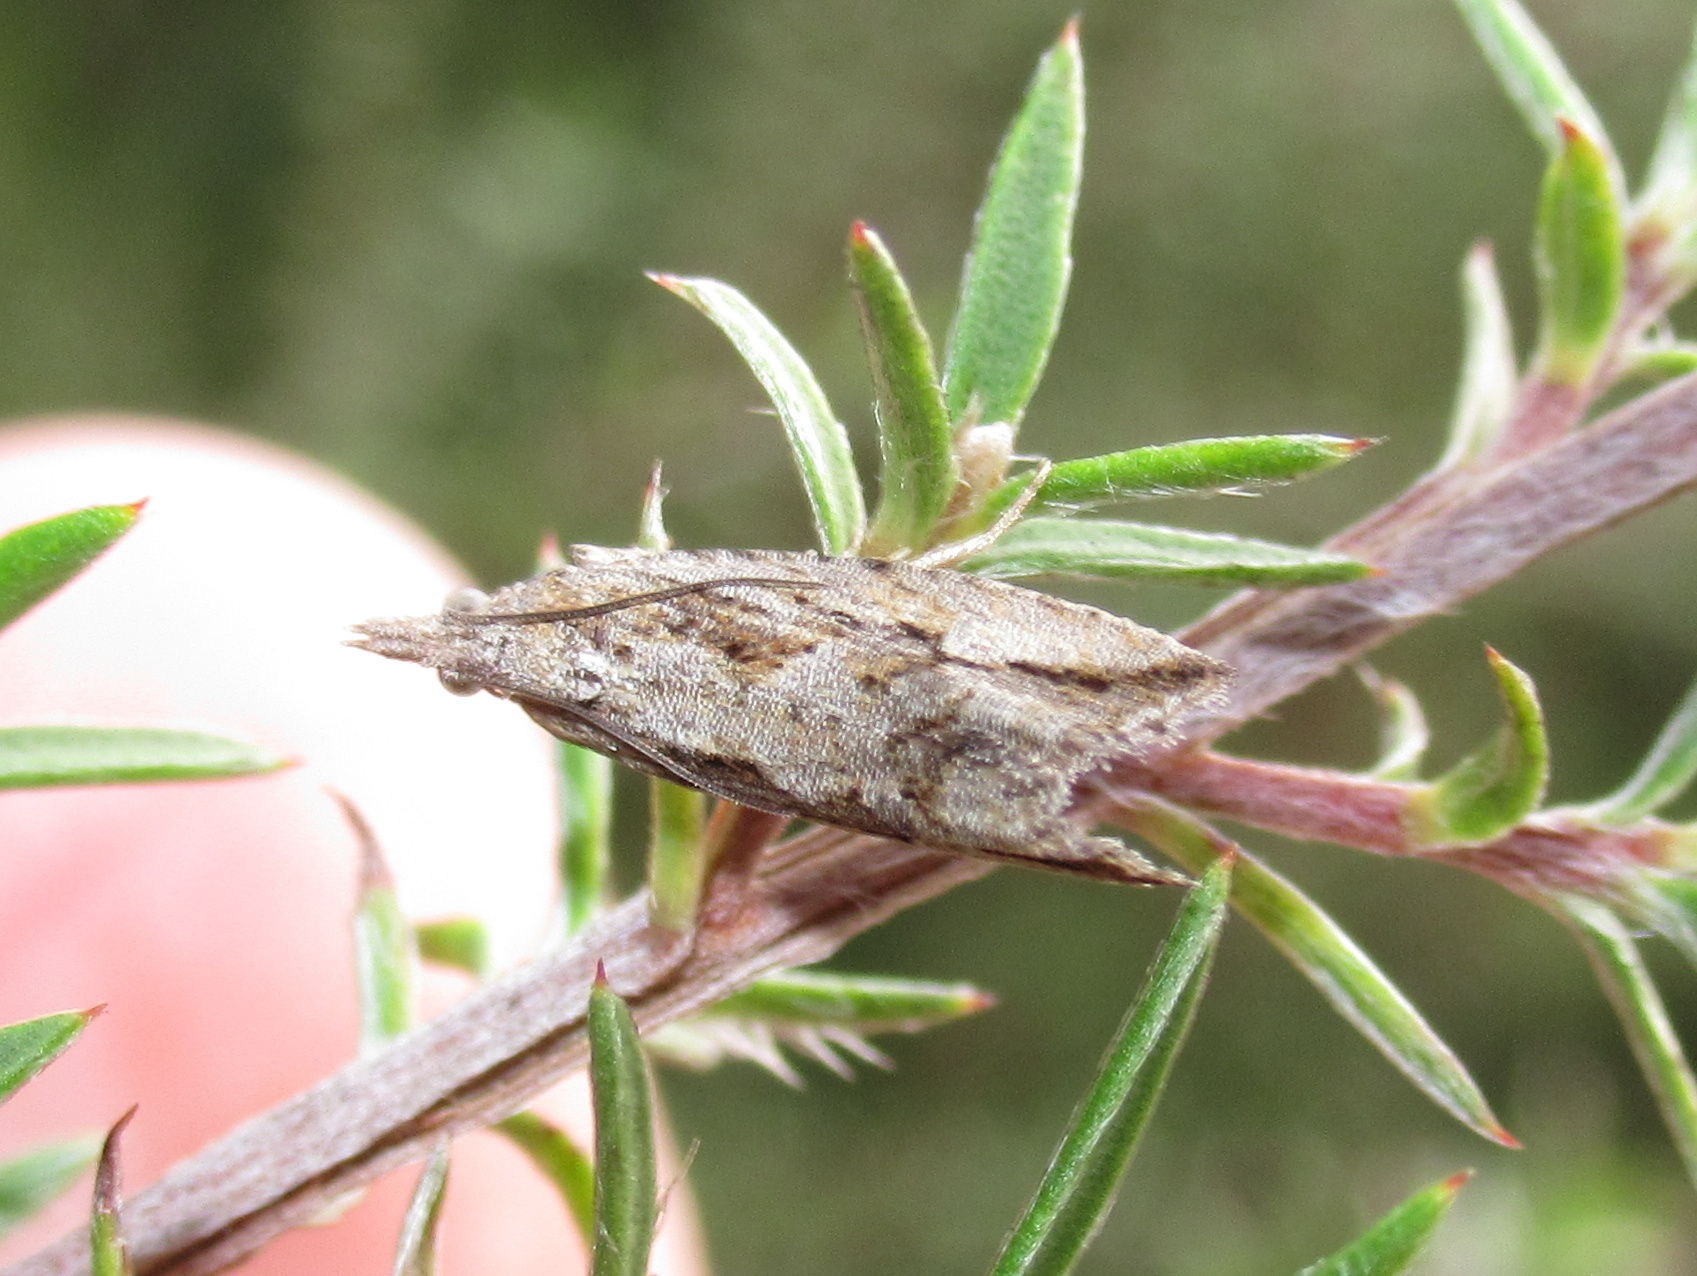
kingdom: Animalia
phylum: Arthropoda
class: Insecta
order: Lepidoptera
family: Tortricidae
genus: Strepsicrates
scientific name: Strepsicrates ejectana
